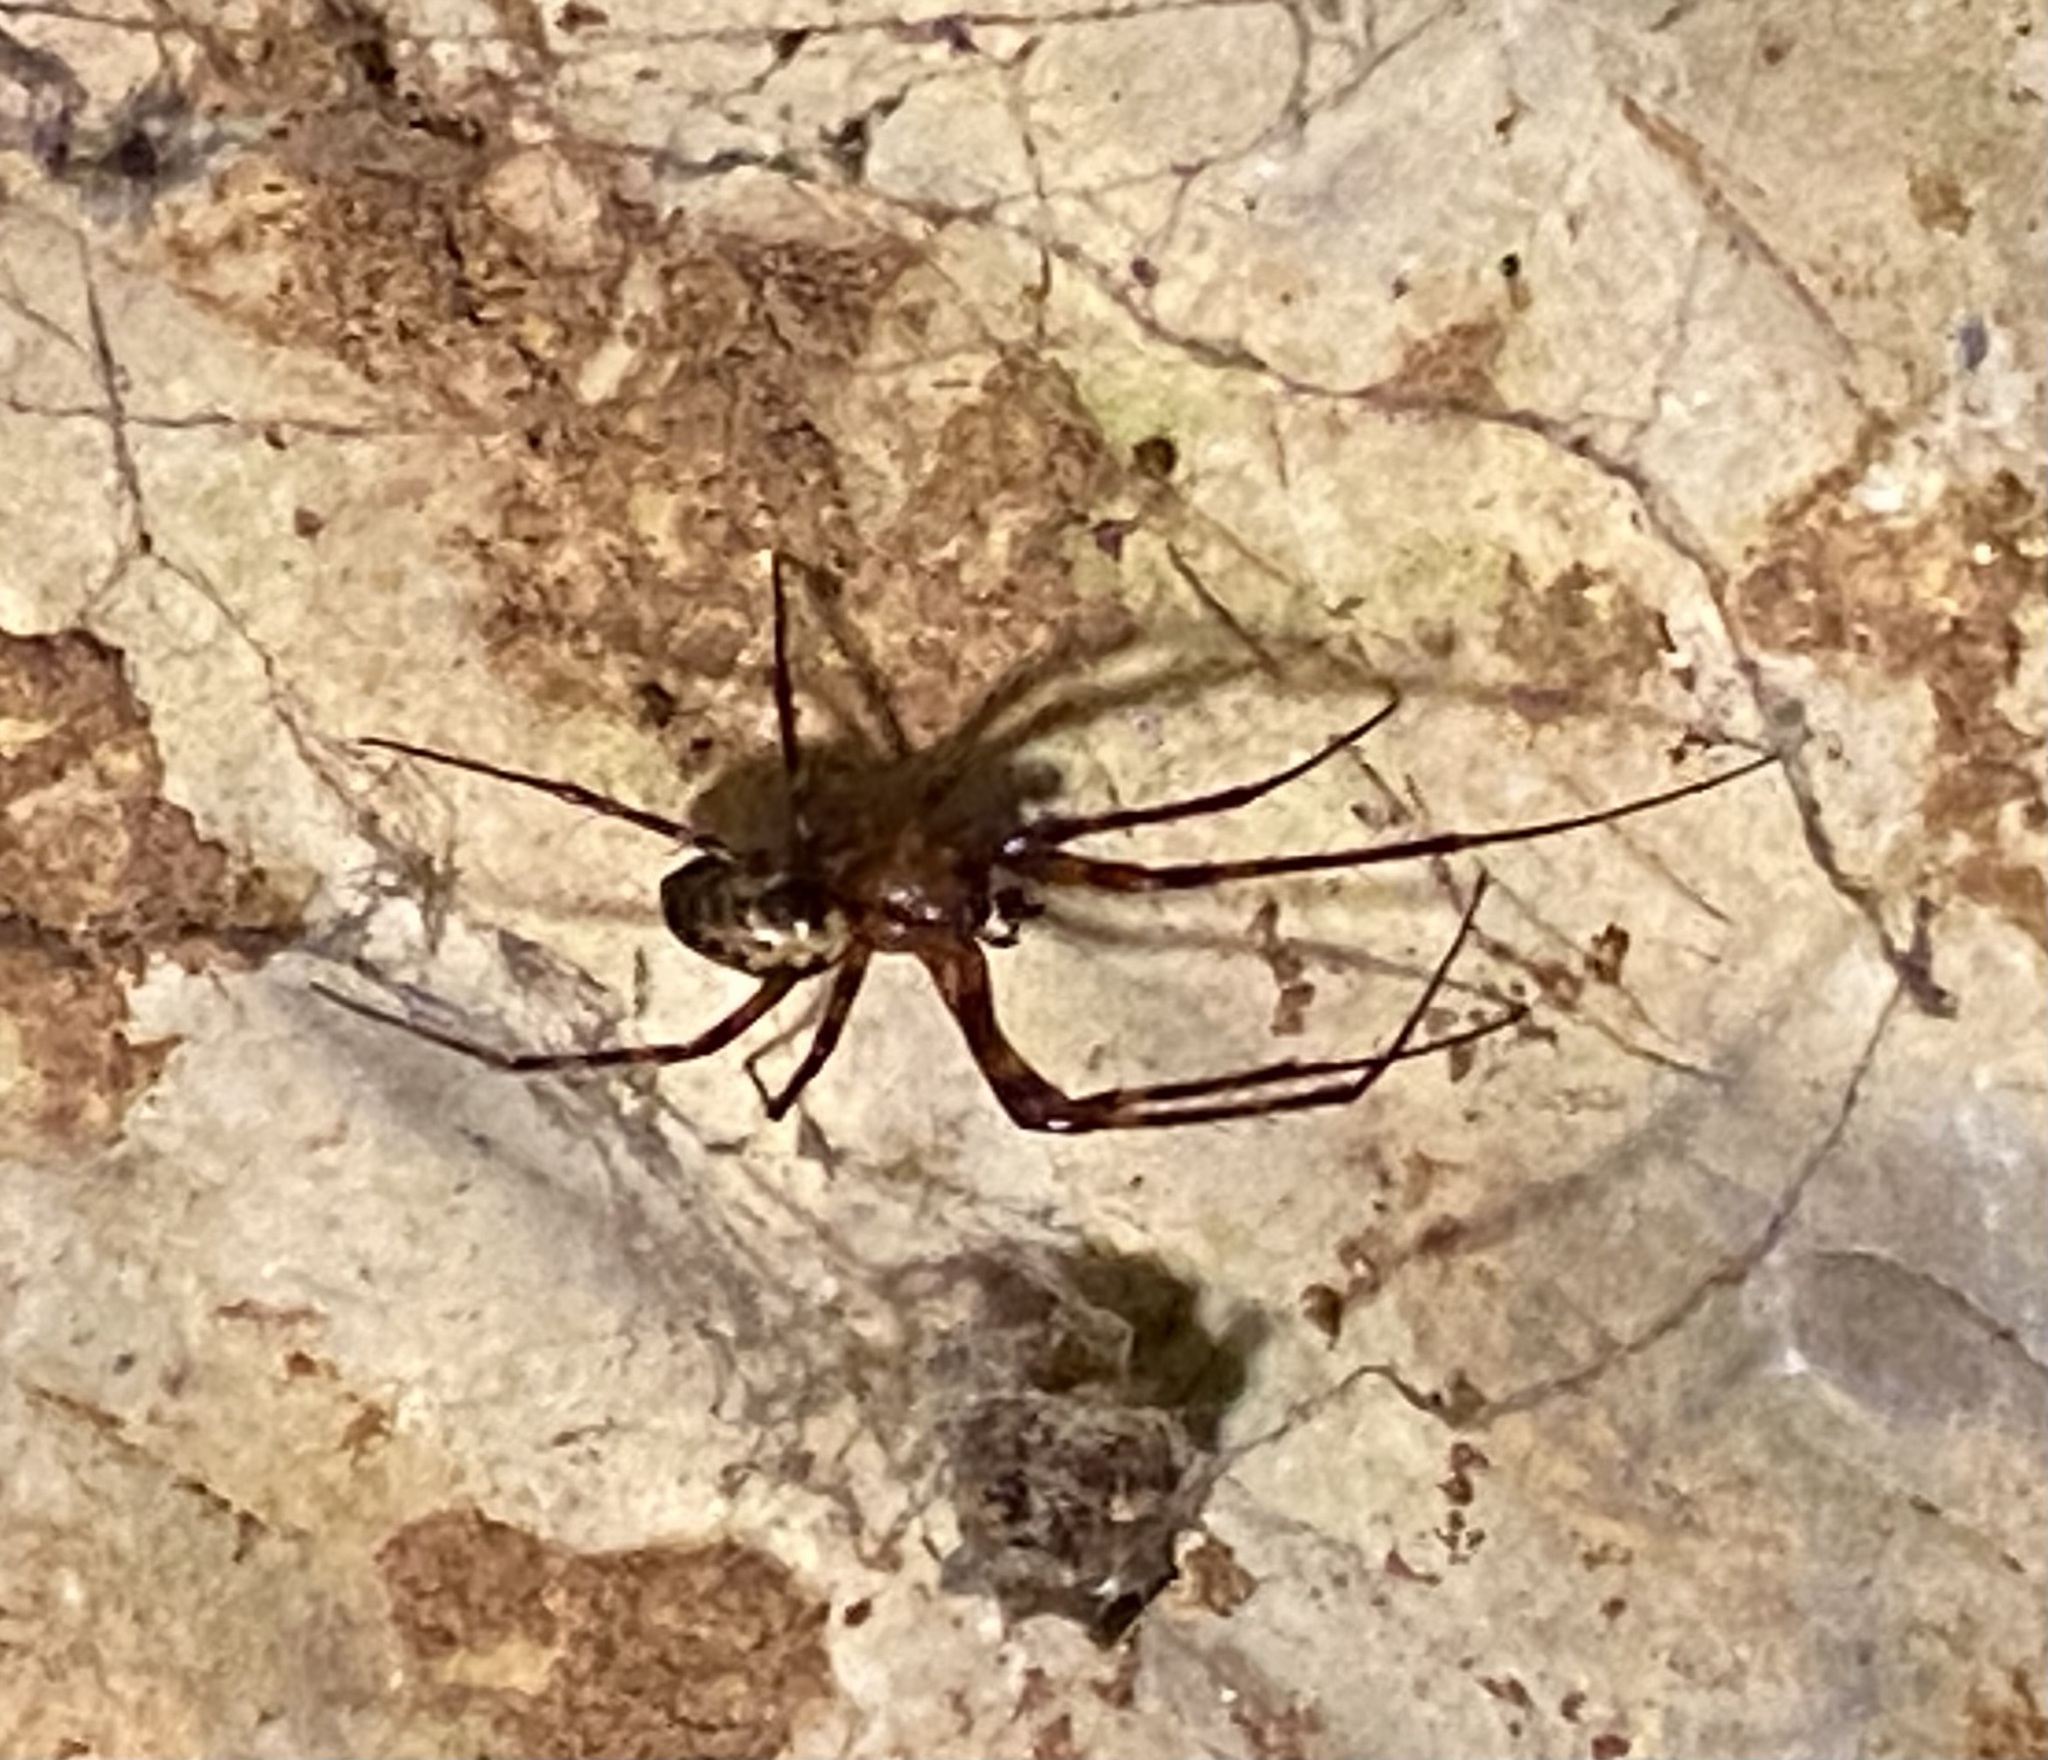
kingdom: Animalia
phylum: Arthropoda
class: Arachnida
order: Araneae
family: Tetragnathidae
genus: Meta
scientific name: Meta ovalis
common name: Eastern cave long-jawed spider
